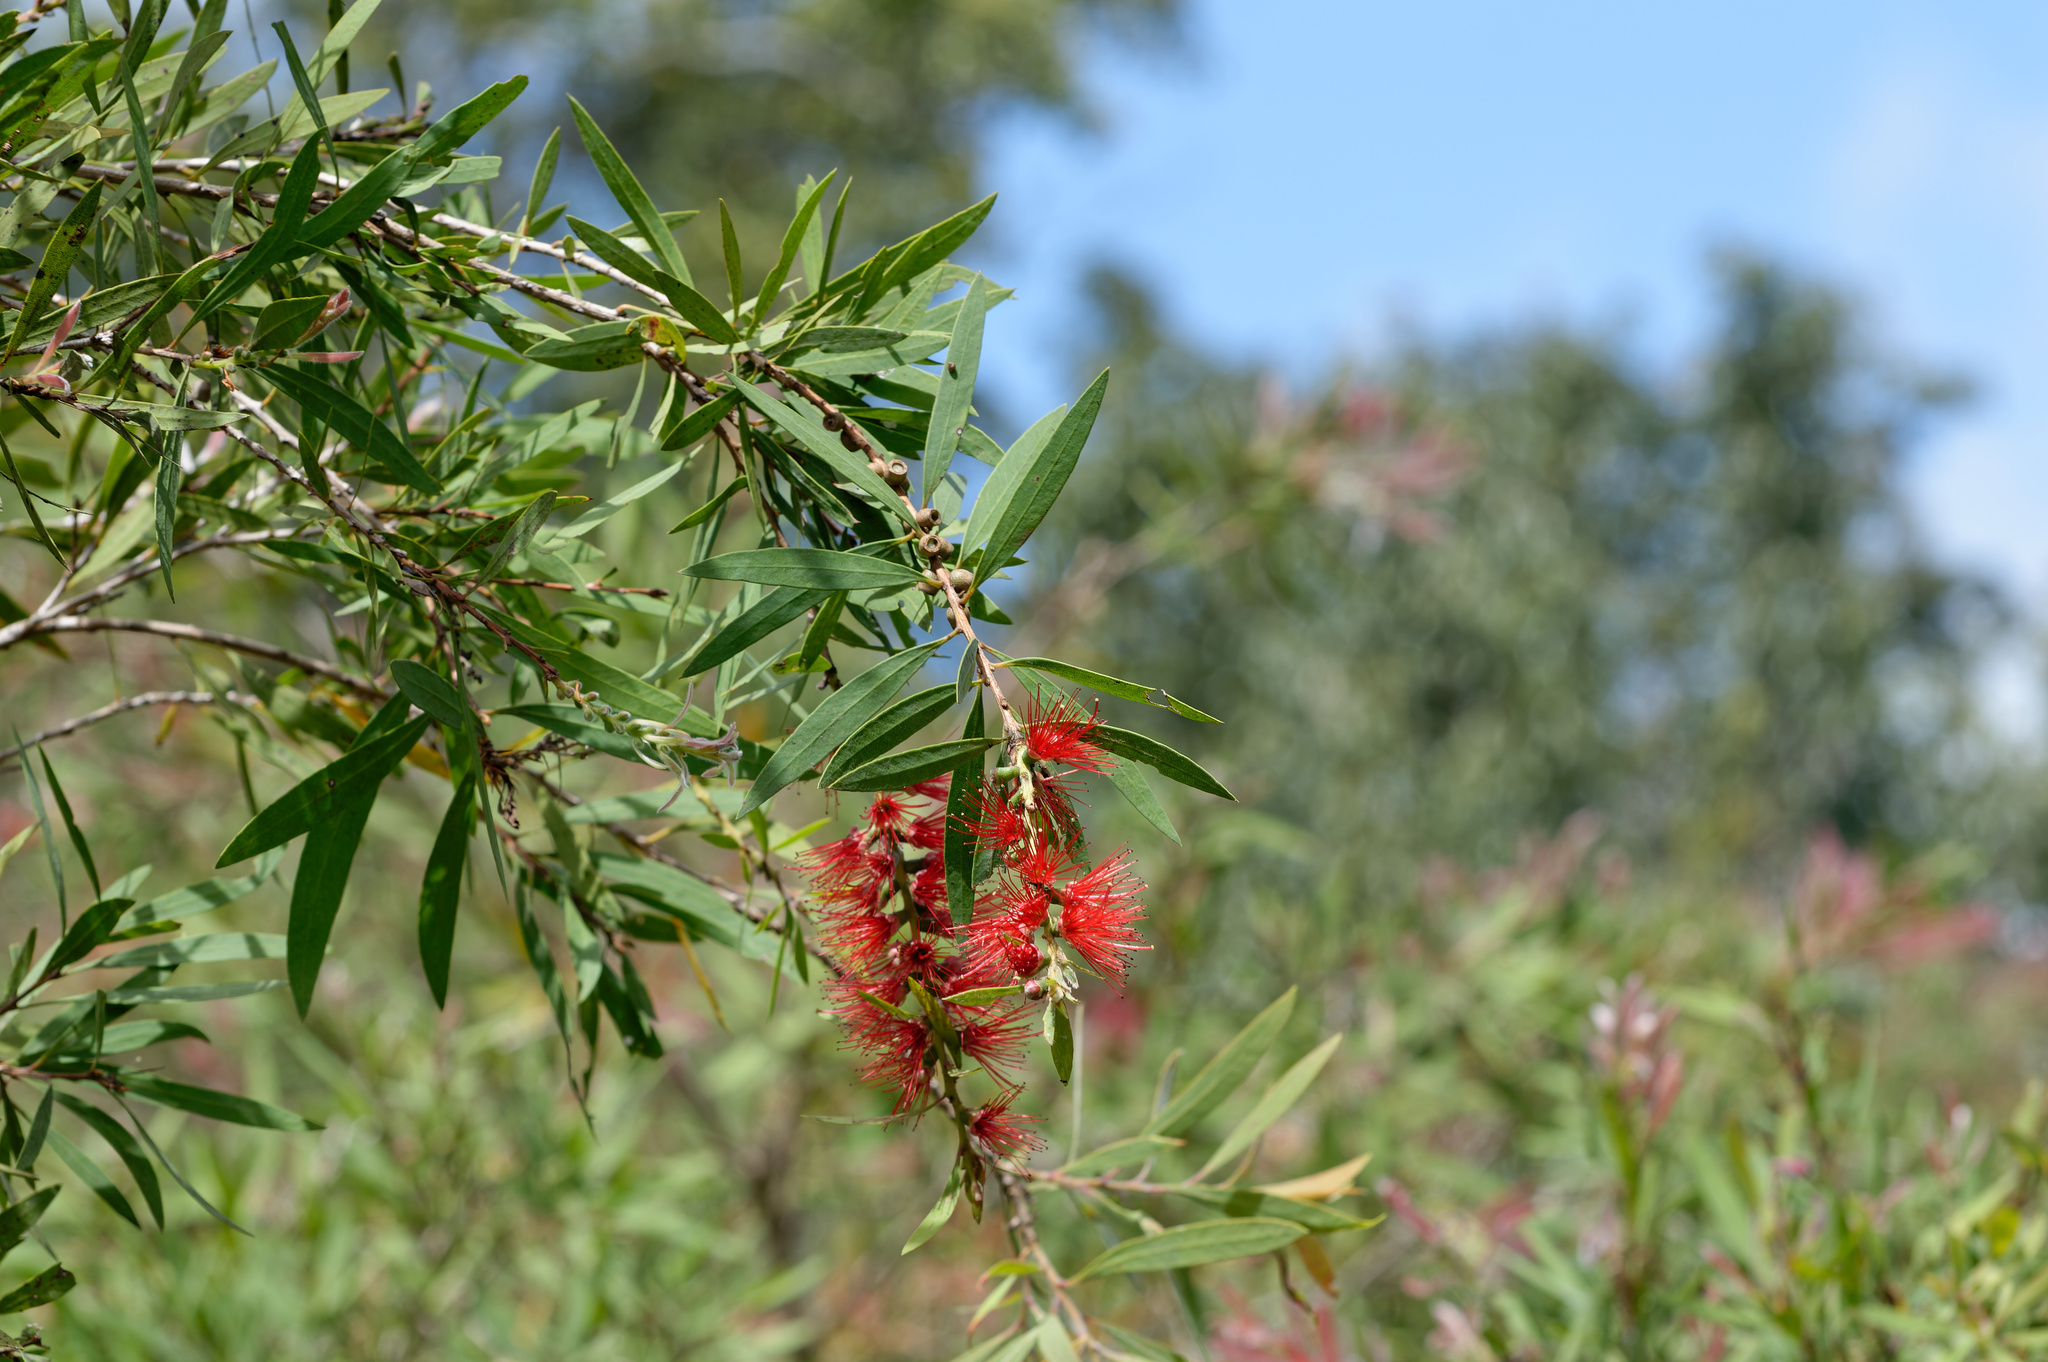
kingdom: Plantae
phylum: Tracheophyta
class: Magnoliopsida
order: Myrtales
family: Myrtaceae
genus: Callistemon
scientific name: Callistemon viminalis
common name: Drooping bottlebrush
